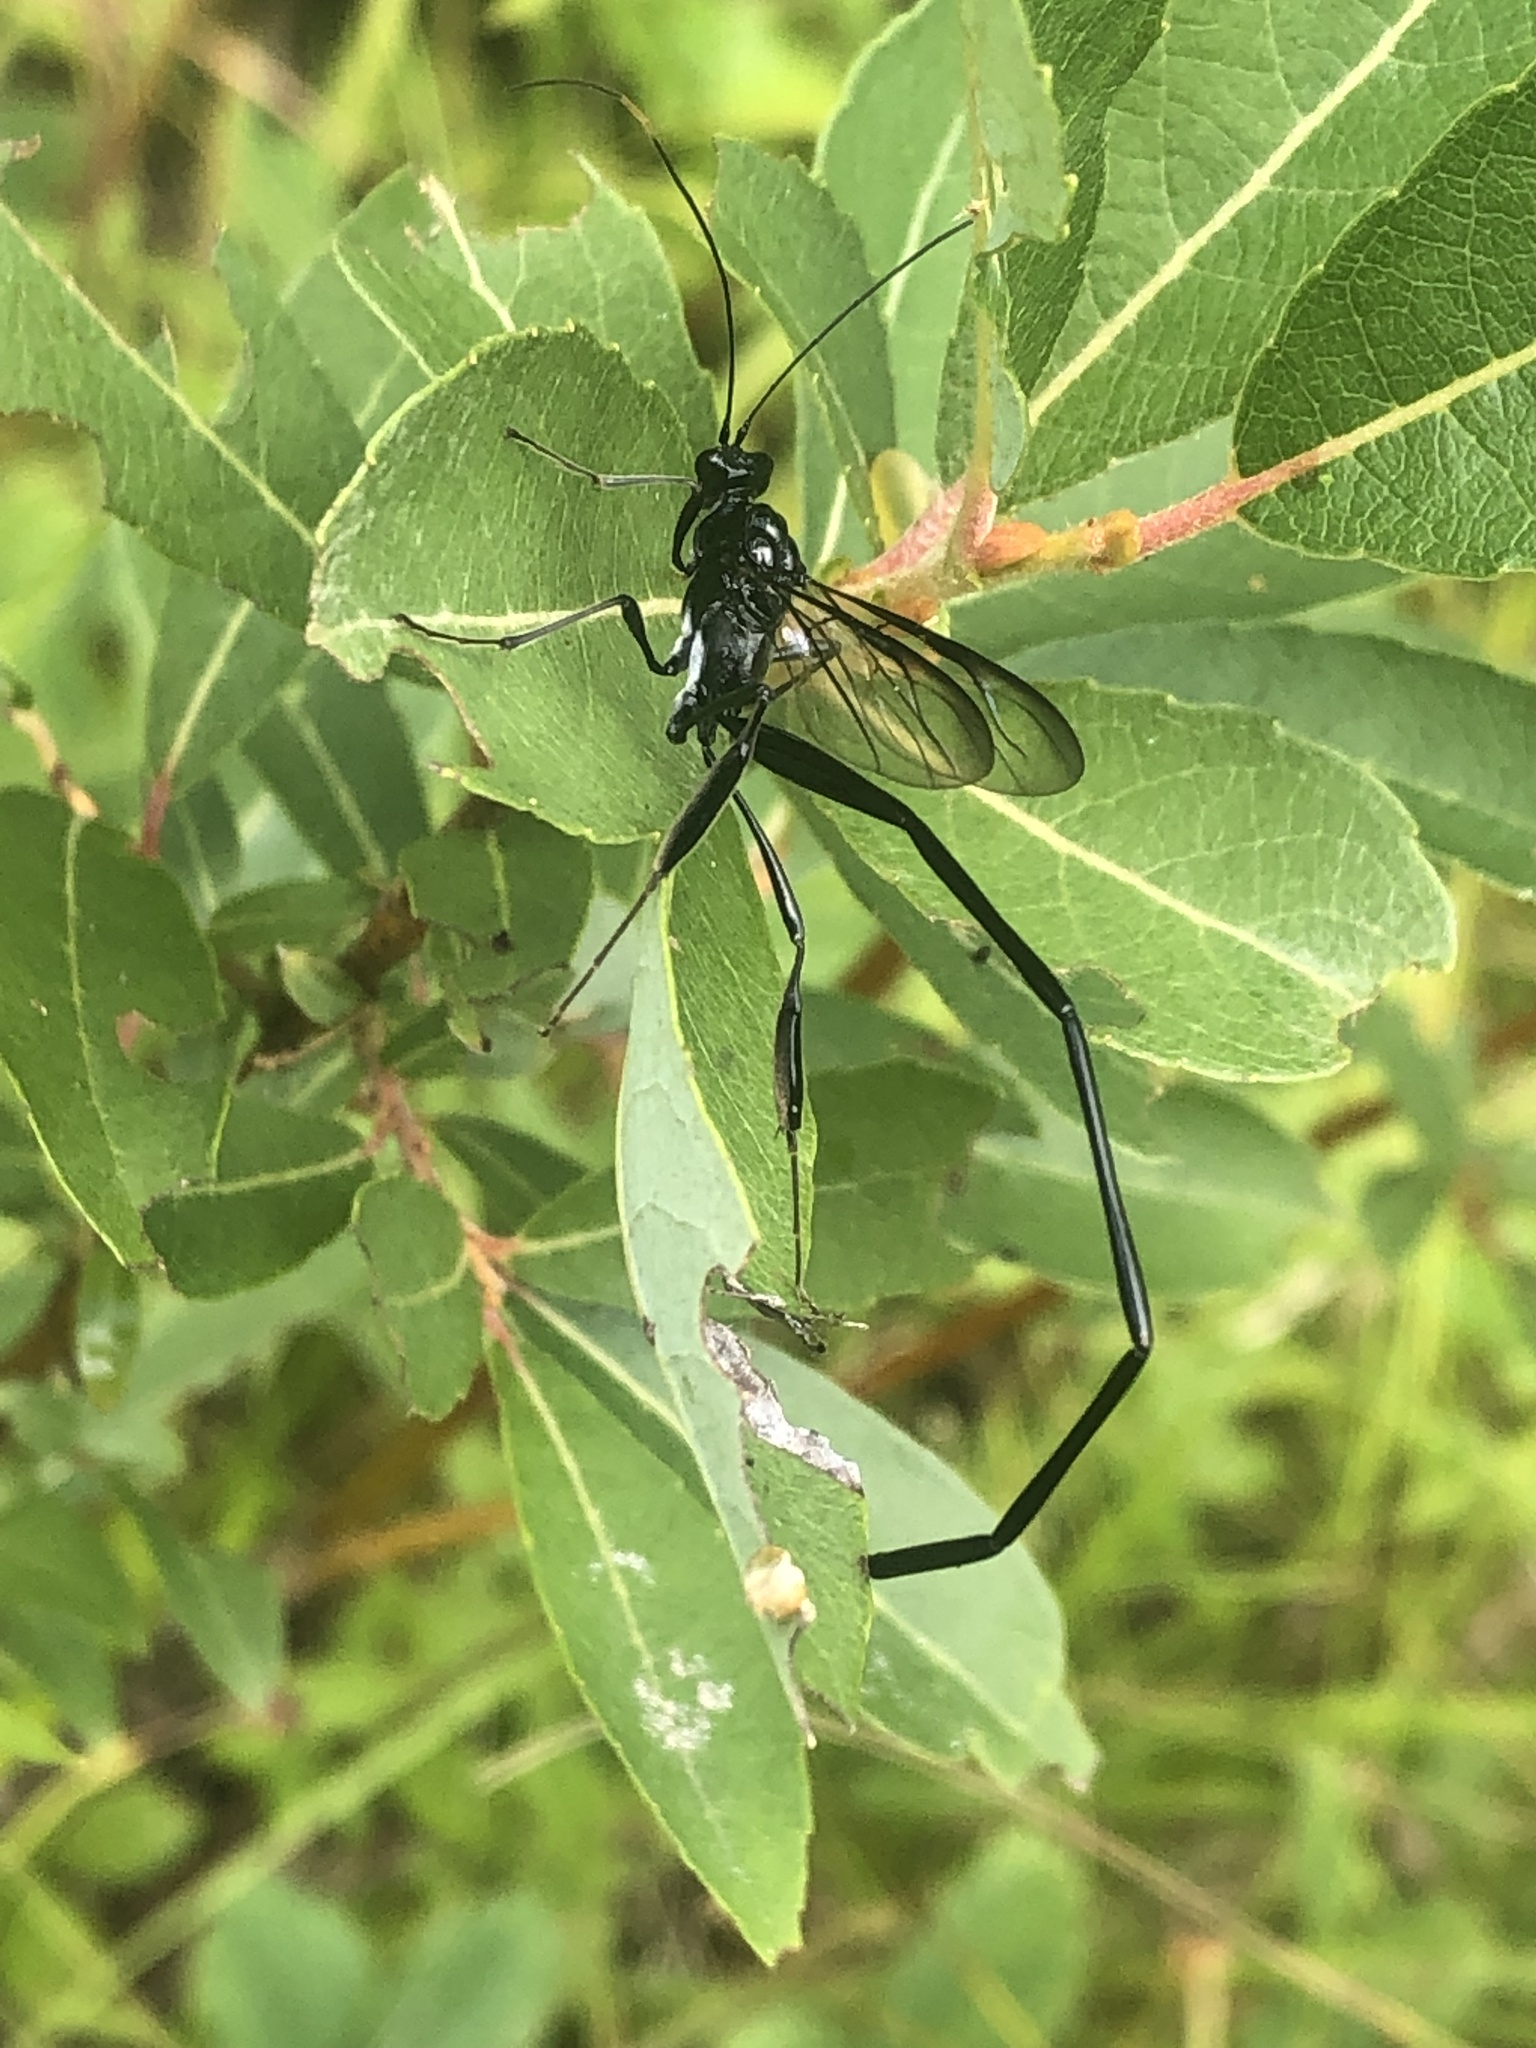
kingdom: Animalia
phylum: Arthropoda
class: Insecta
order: Hymenoptera
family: Pelecinidae
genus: Pelecinus
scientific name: Pelecinus polyturator
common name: American pelecinid wasp
